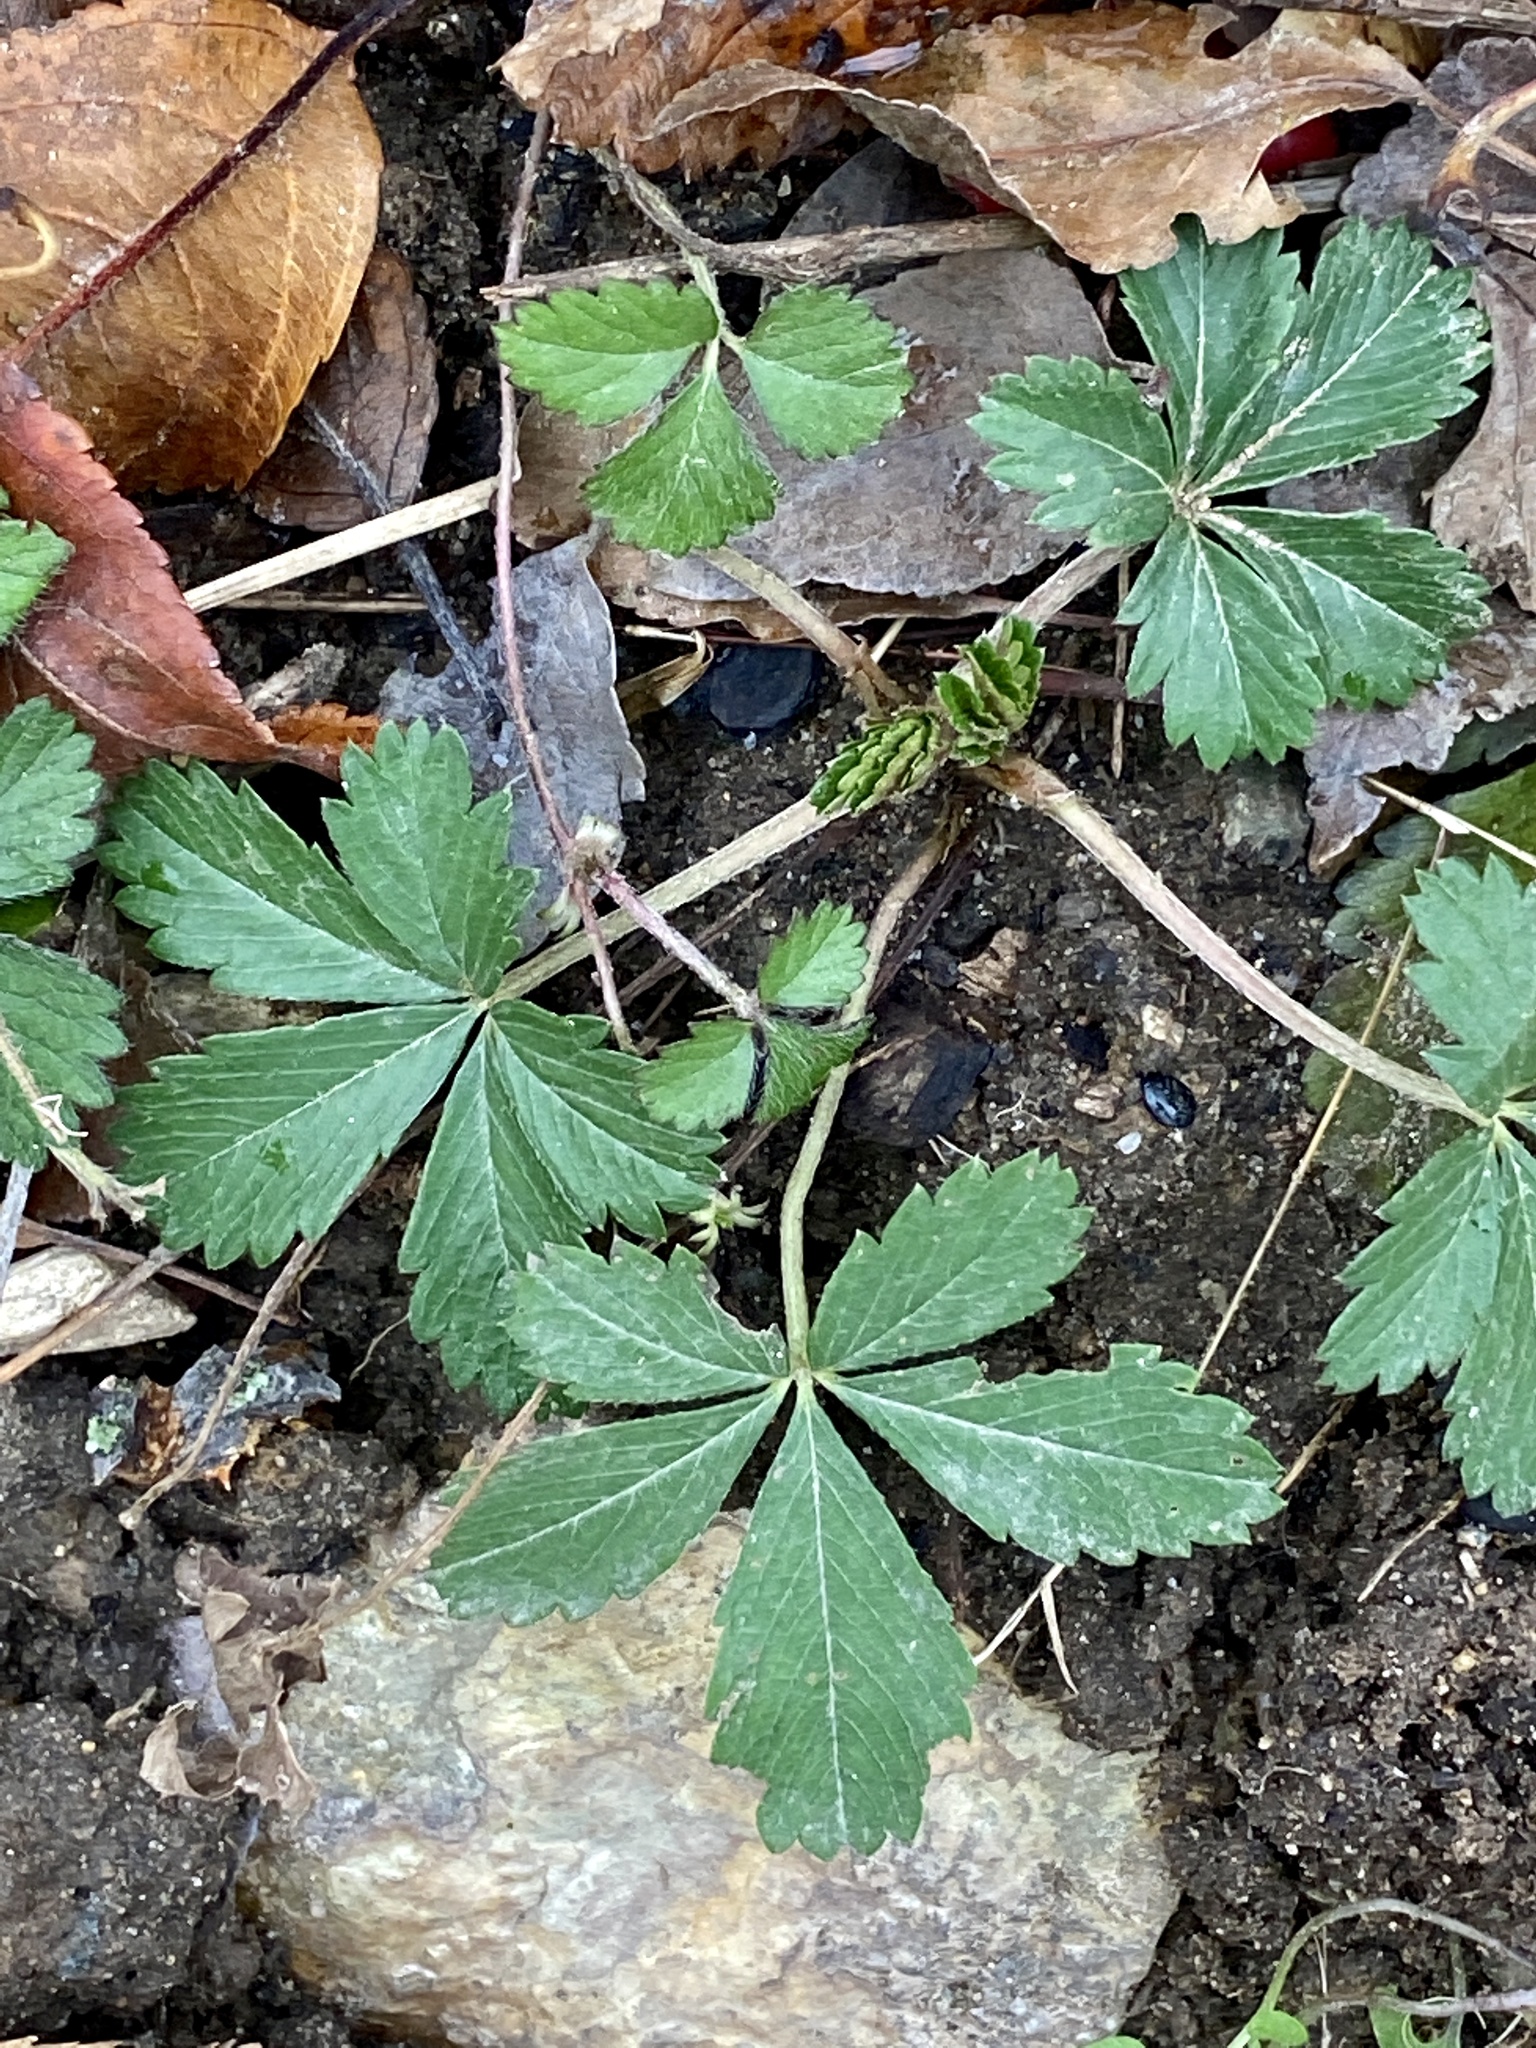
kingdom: Plantae
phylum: Tracheophyta
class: Magnoliopsida
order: Rosales
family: Rosaceae
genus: Potentilla
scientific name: Potentilla canadensis
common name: Canada cinquefoil
